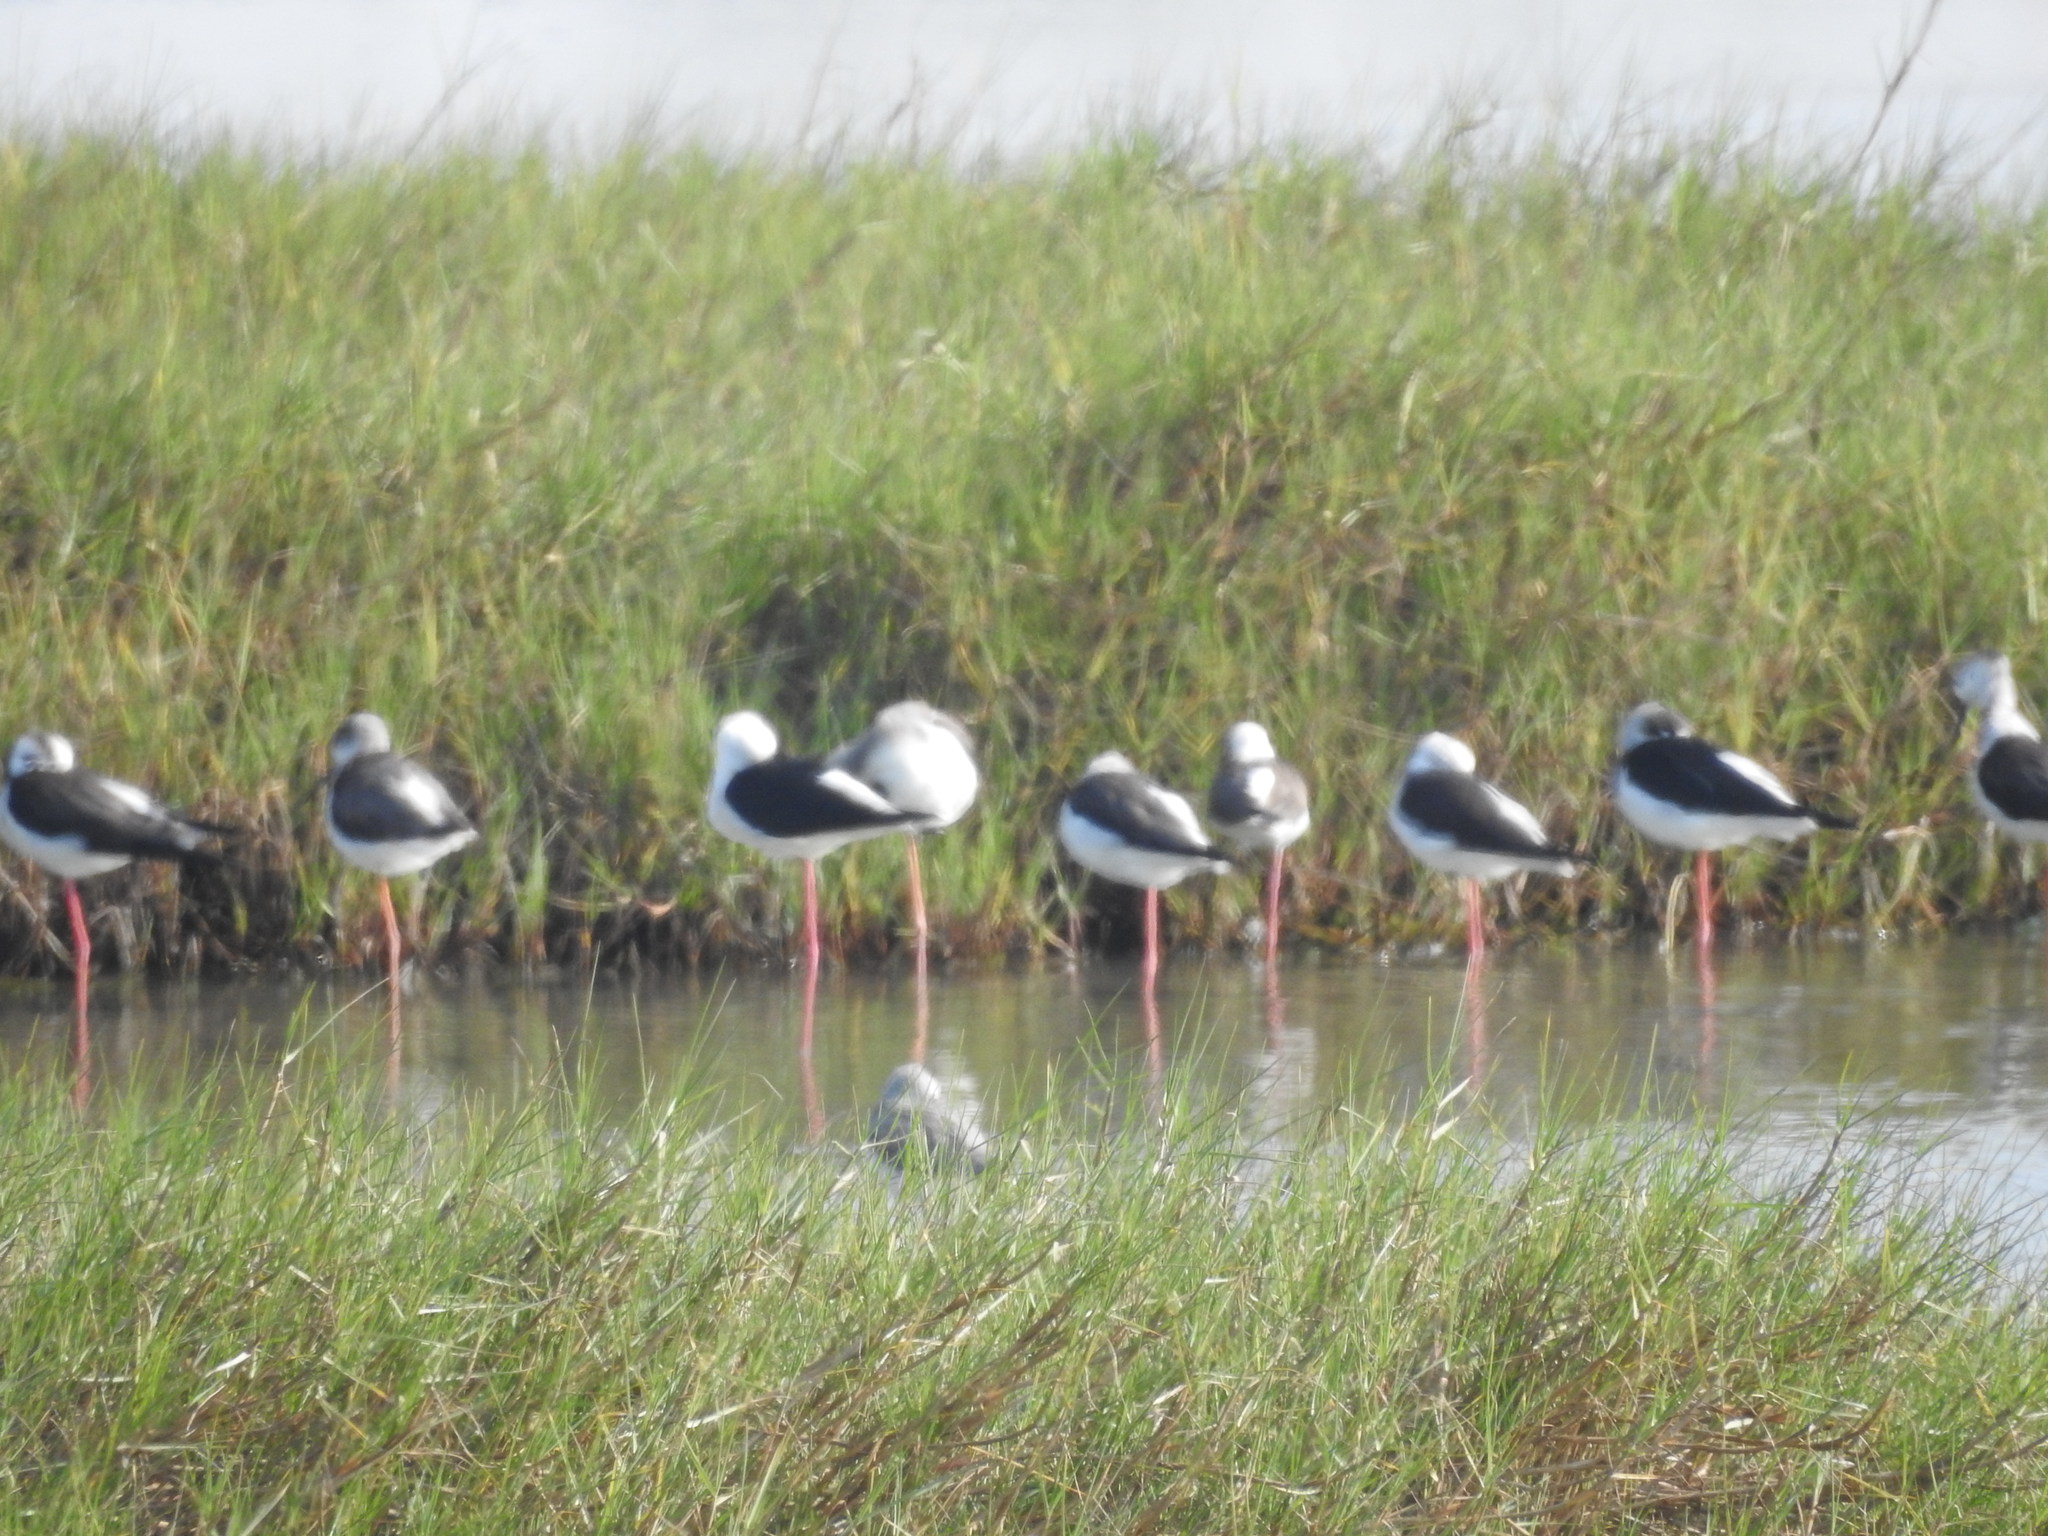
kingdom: Animalia
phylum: Chordata
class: Aves
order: Charadriiformes
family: Recurvirostridae
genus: Himantopus
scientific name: Himantopus himantopus
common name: Black-winged stilt
